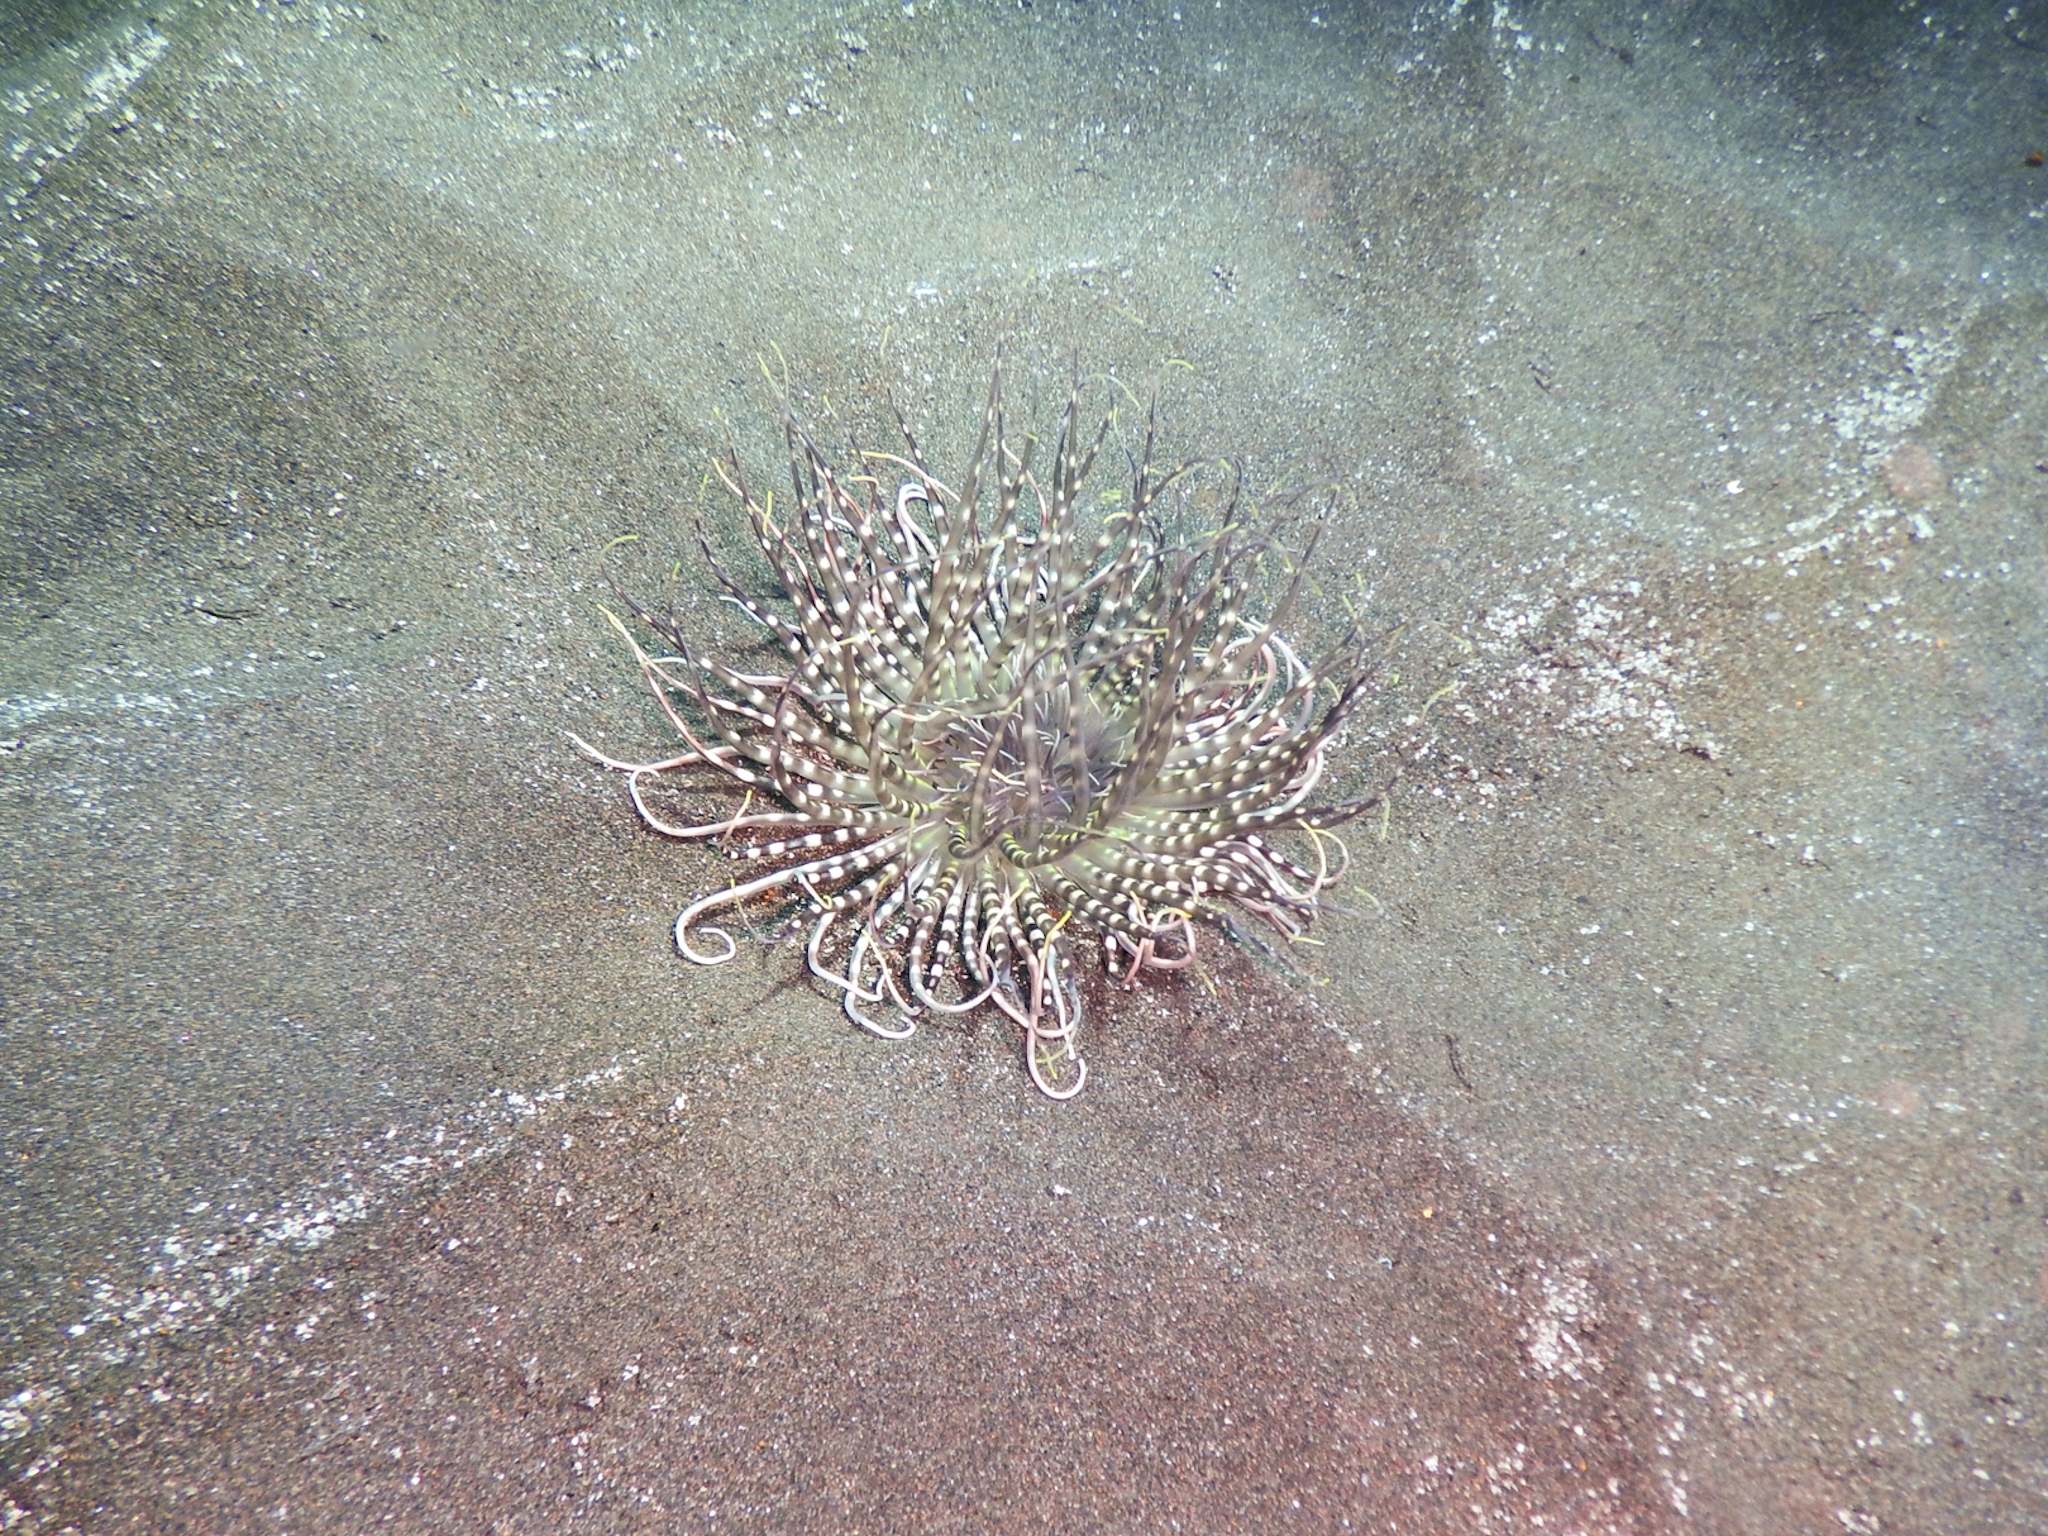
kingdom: Animalia
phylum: Cnidaria
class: Anthozoa
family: Cerianthidae
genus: Pachycerianthus
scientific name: Pachycerianthus solitarius
